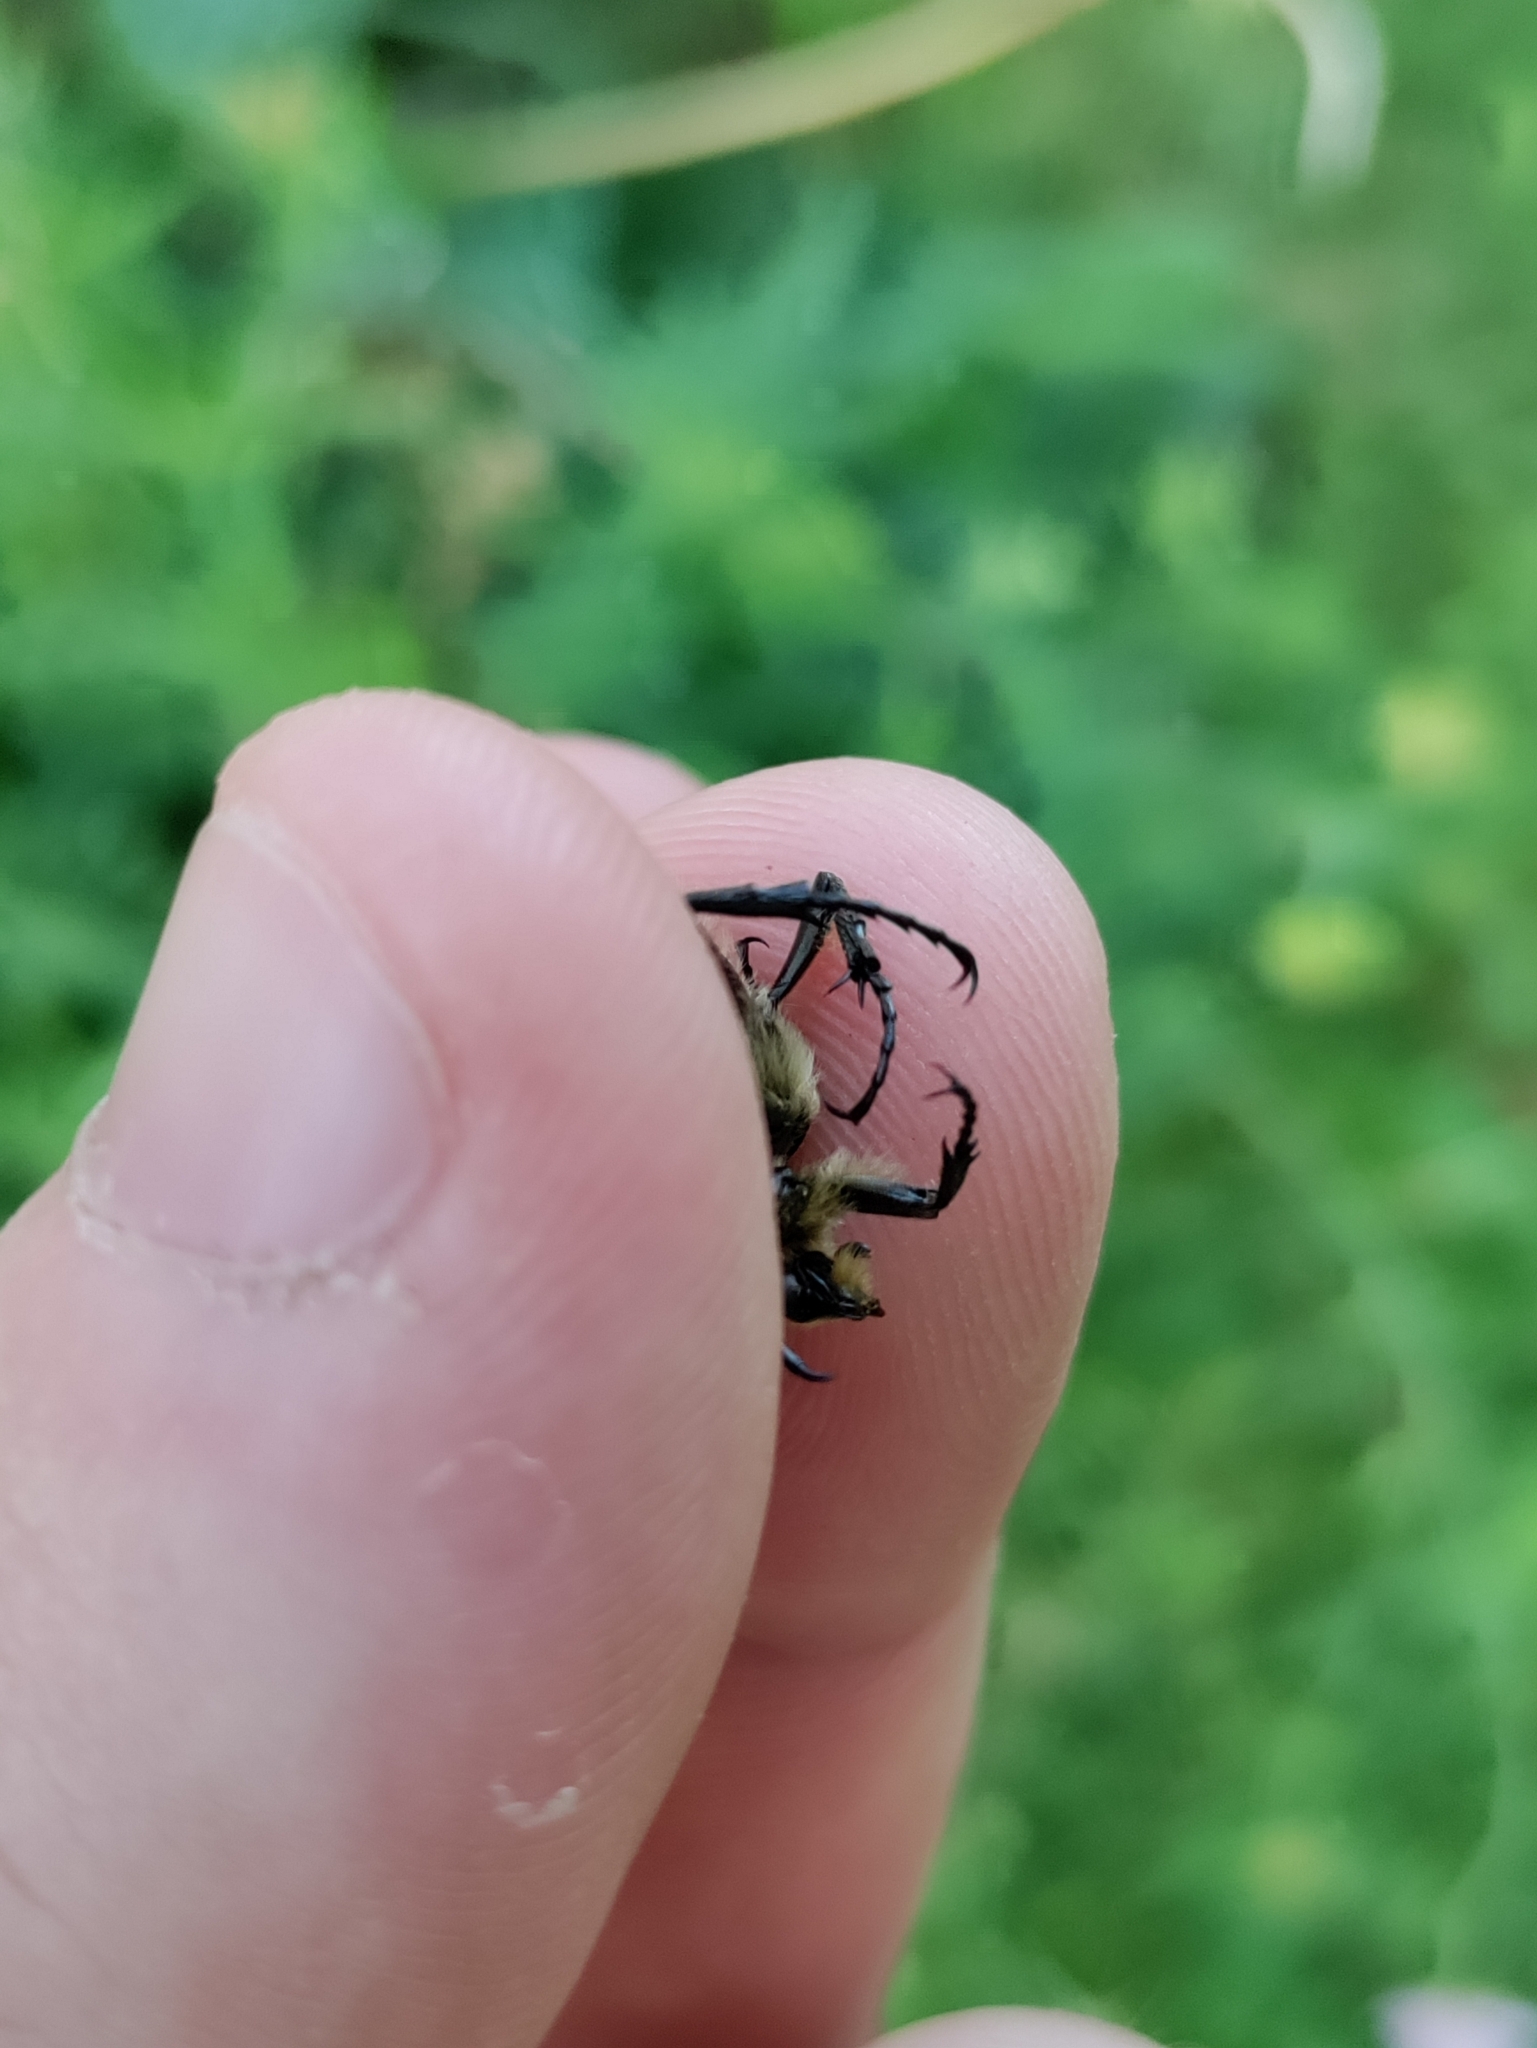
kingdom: Animalia
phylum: Arthropoda
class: Insecta
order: Coleoptera
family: Scarabaeidae
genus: Trichius
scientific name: Trichius fasciatus
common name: Bee beetle
